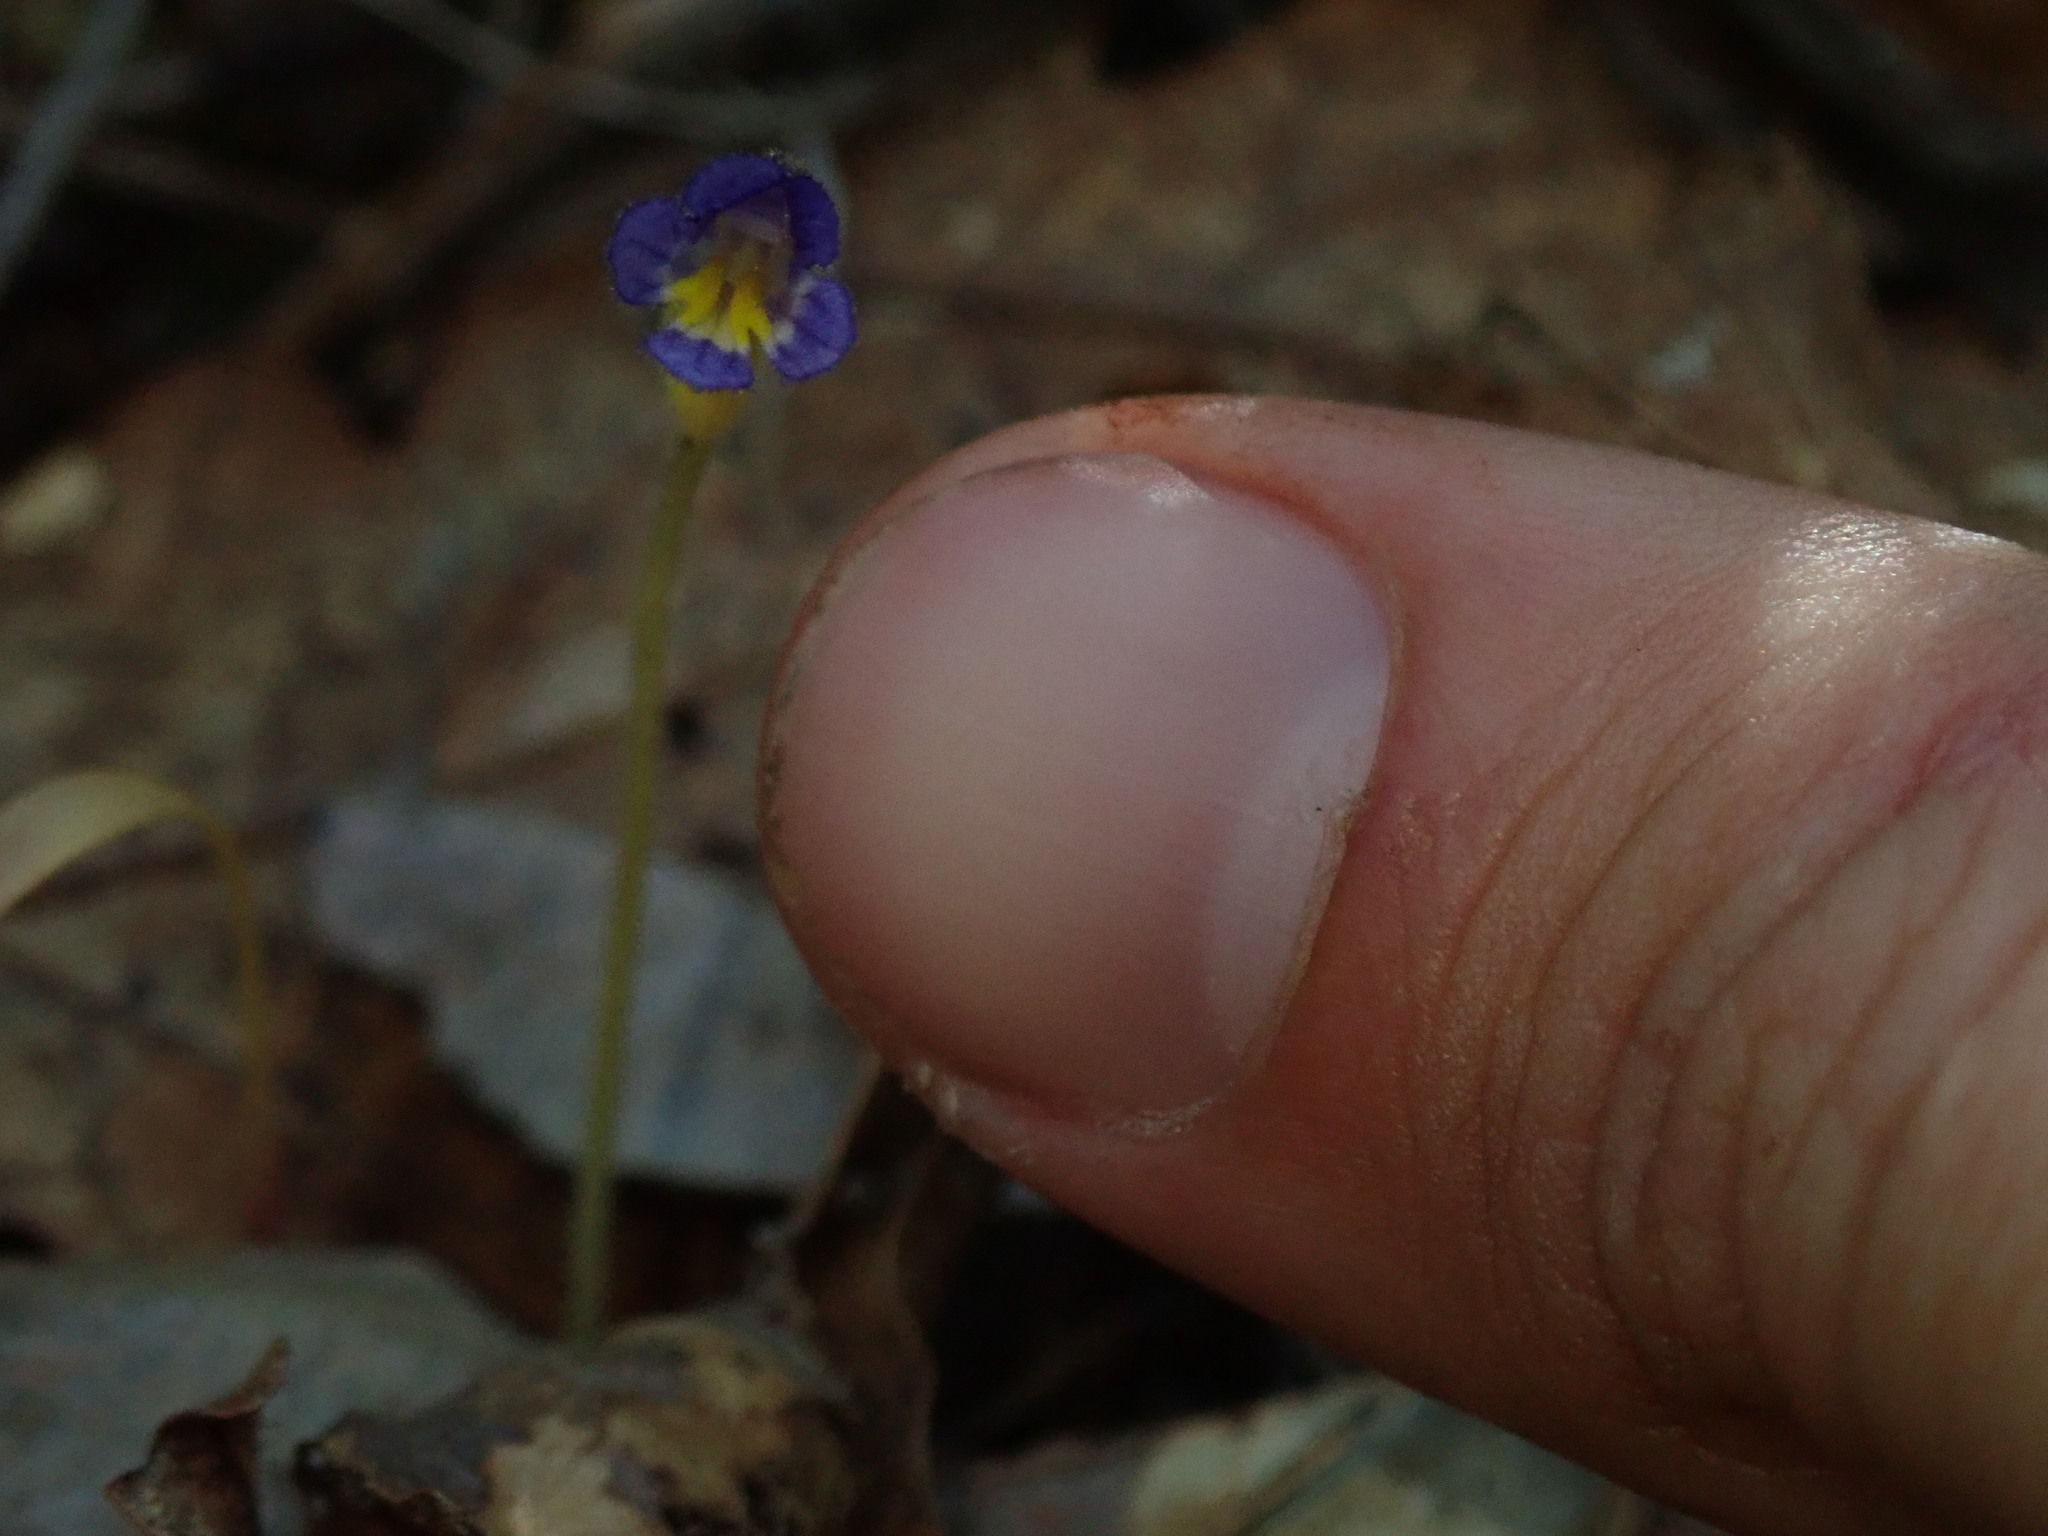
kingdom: Plantae
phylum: Tracheophyta
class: Magnoliopsida
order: Lamiales
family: Orobanchaceae
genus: Aphyllon
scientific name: Aphyllon uniflorum
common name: One-flowered broomrape
